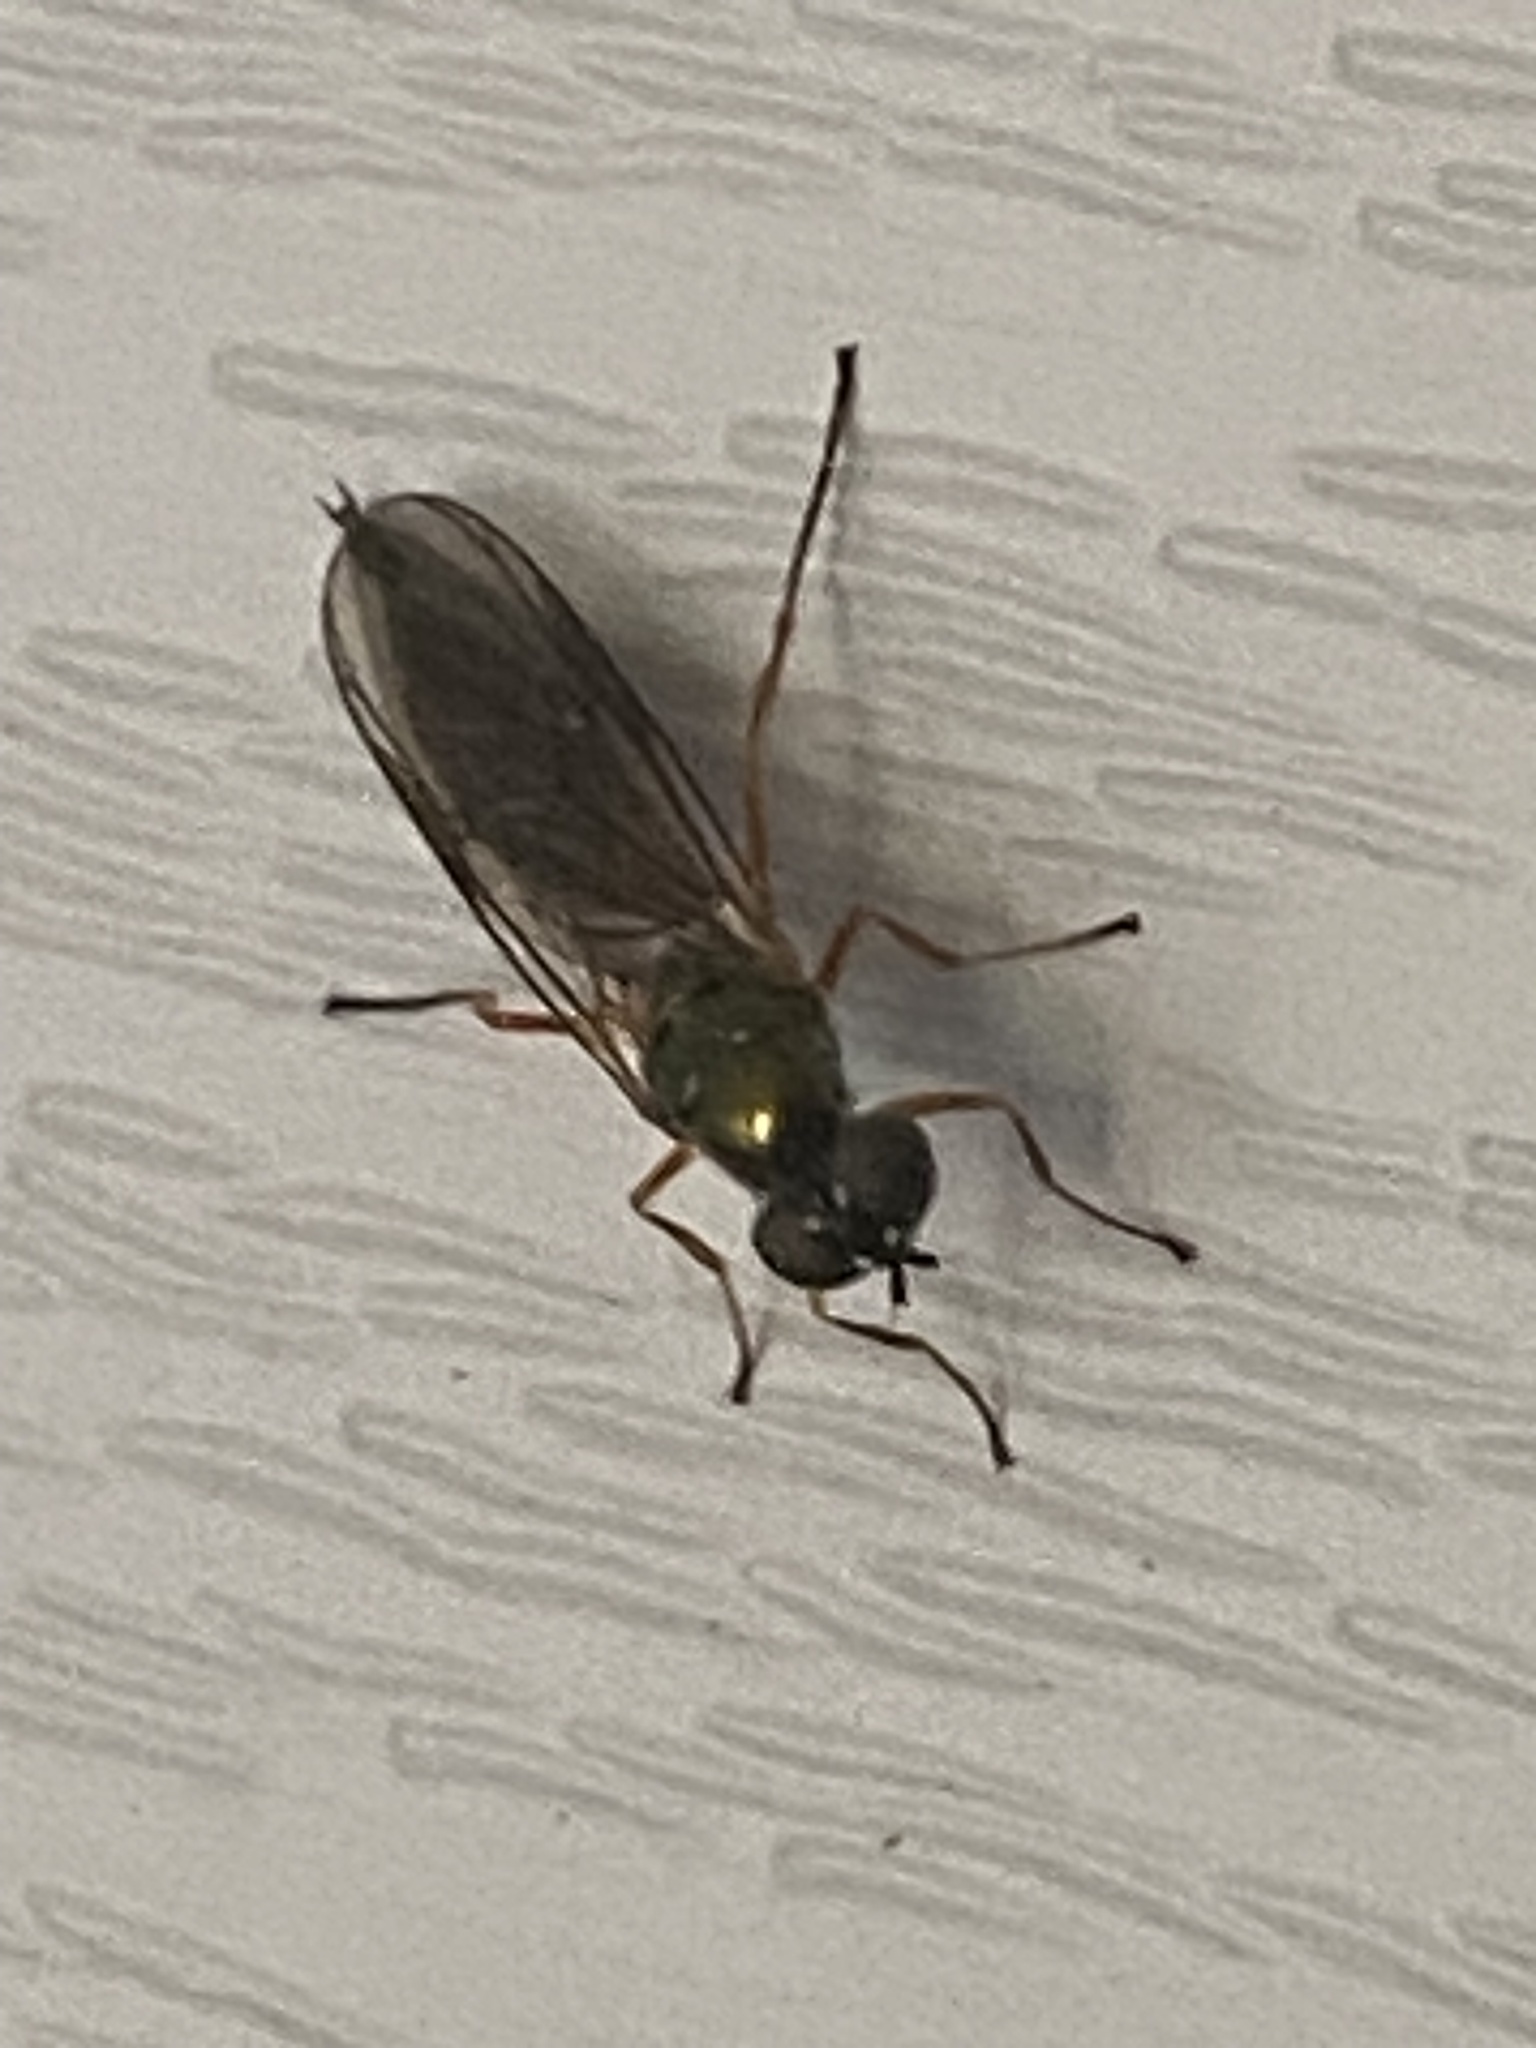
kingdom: Animalia
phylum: Arthropoda
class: Insecta
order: Diptera
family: Stratiomyidae
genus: Sargus
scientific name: Sargus bipunctatus
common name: Twin-spot centurion
